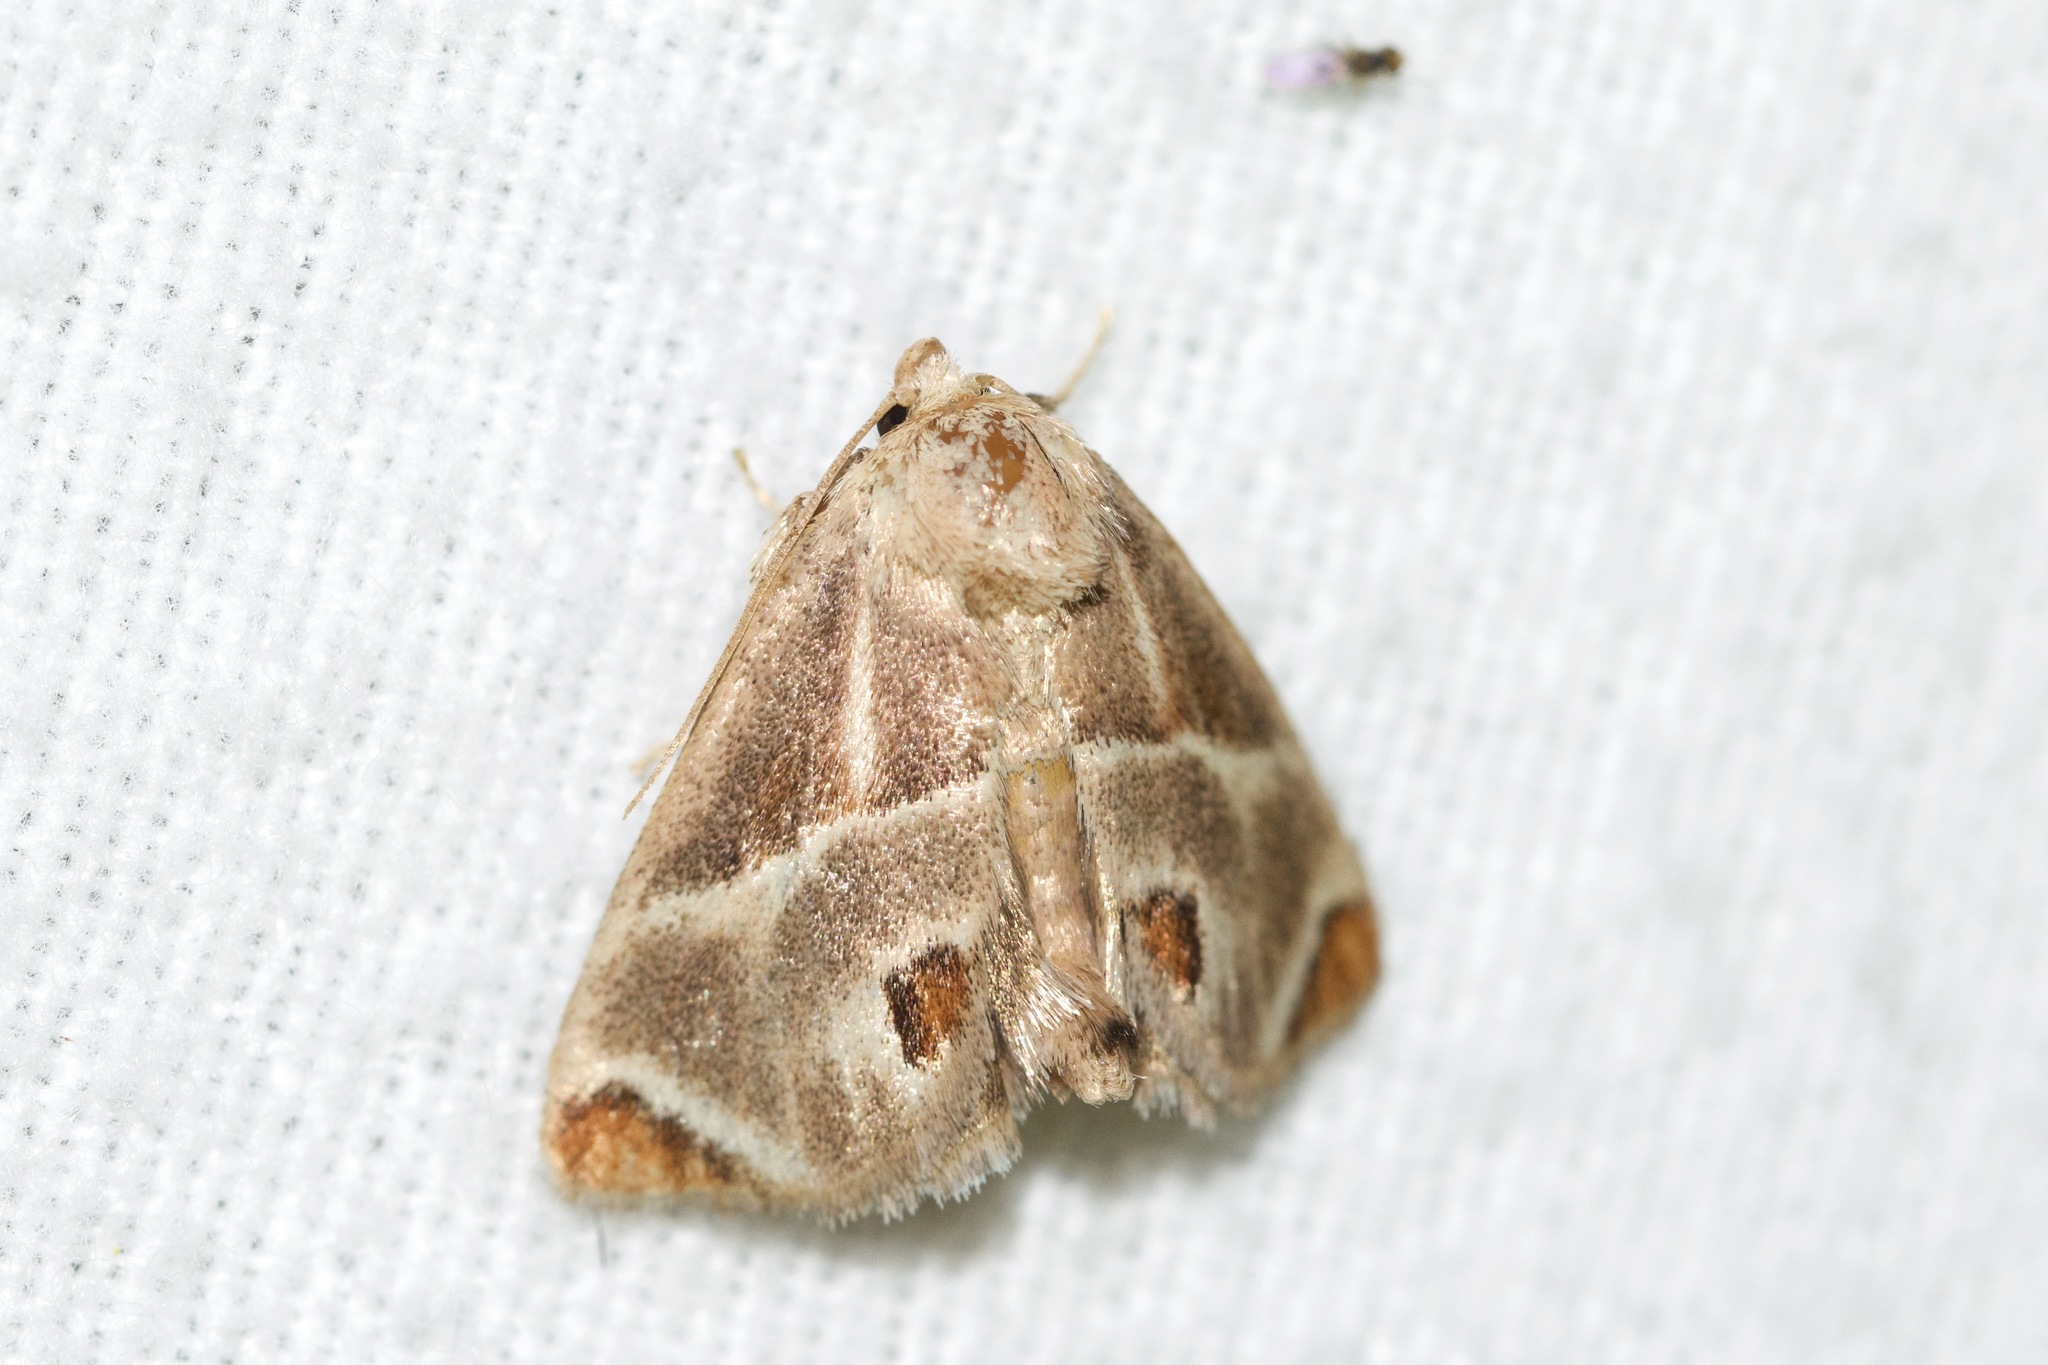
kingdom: Animalia
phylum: Arthropoda
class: Insecta
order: Lepidoptera
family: Limacodidae
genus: Apoda
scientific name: Apoda biguttata
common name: Shagreened slug moth
